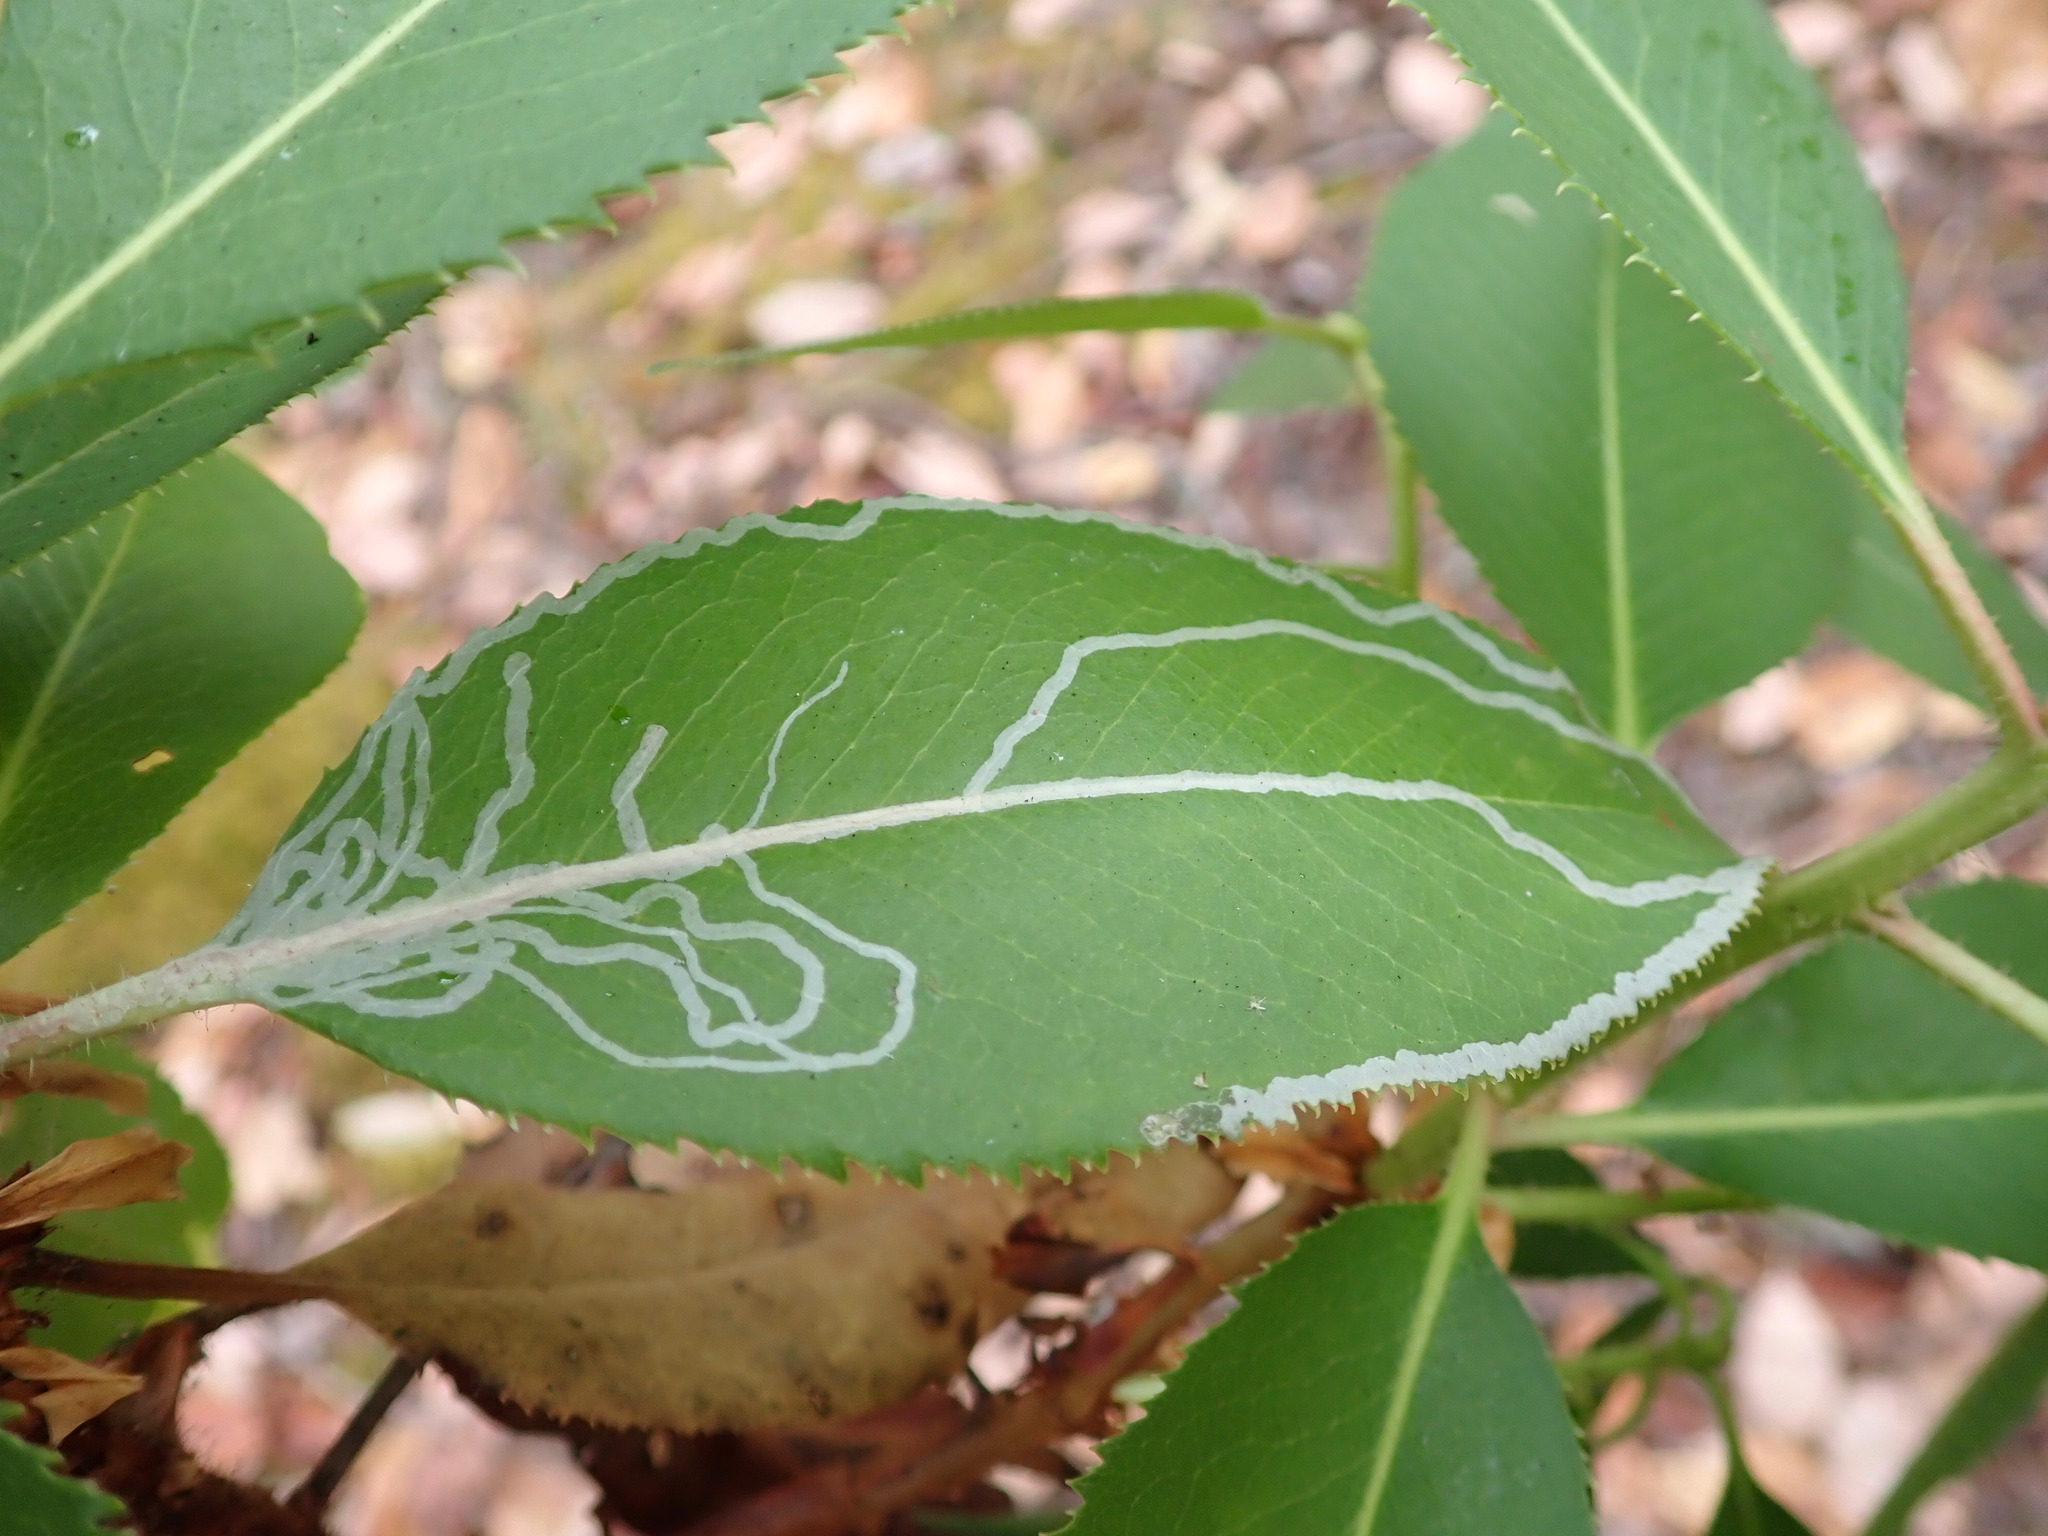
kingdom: Animalia
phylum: Arthropoda
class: Insecta
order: Lepidoptera
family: Gracillariidae
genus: Marmara
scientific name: Marmara arbutiella
